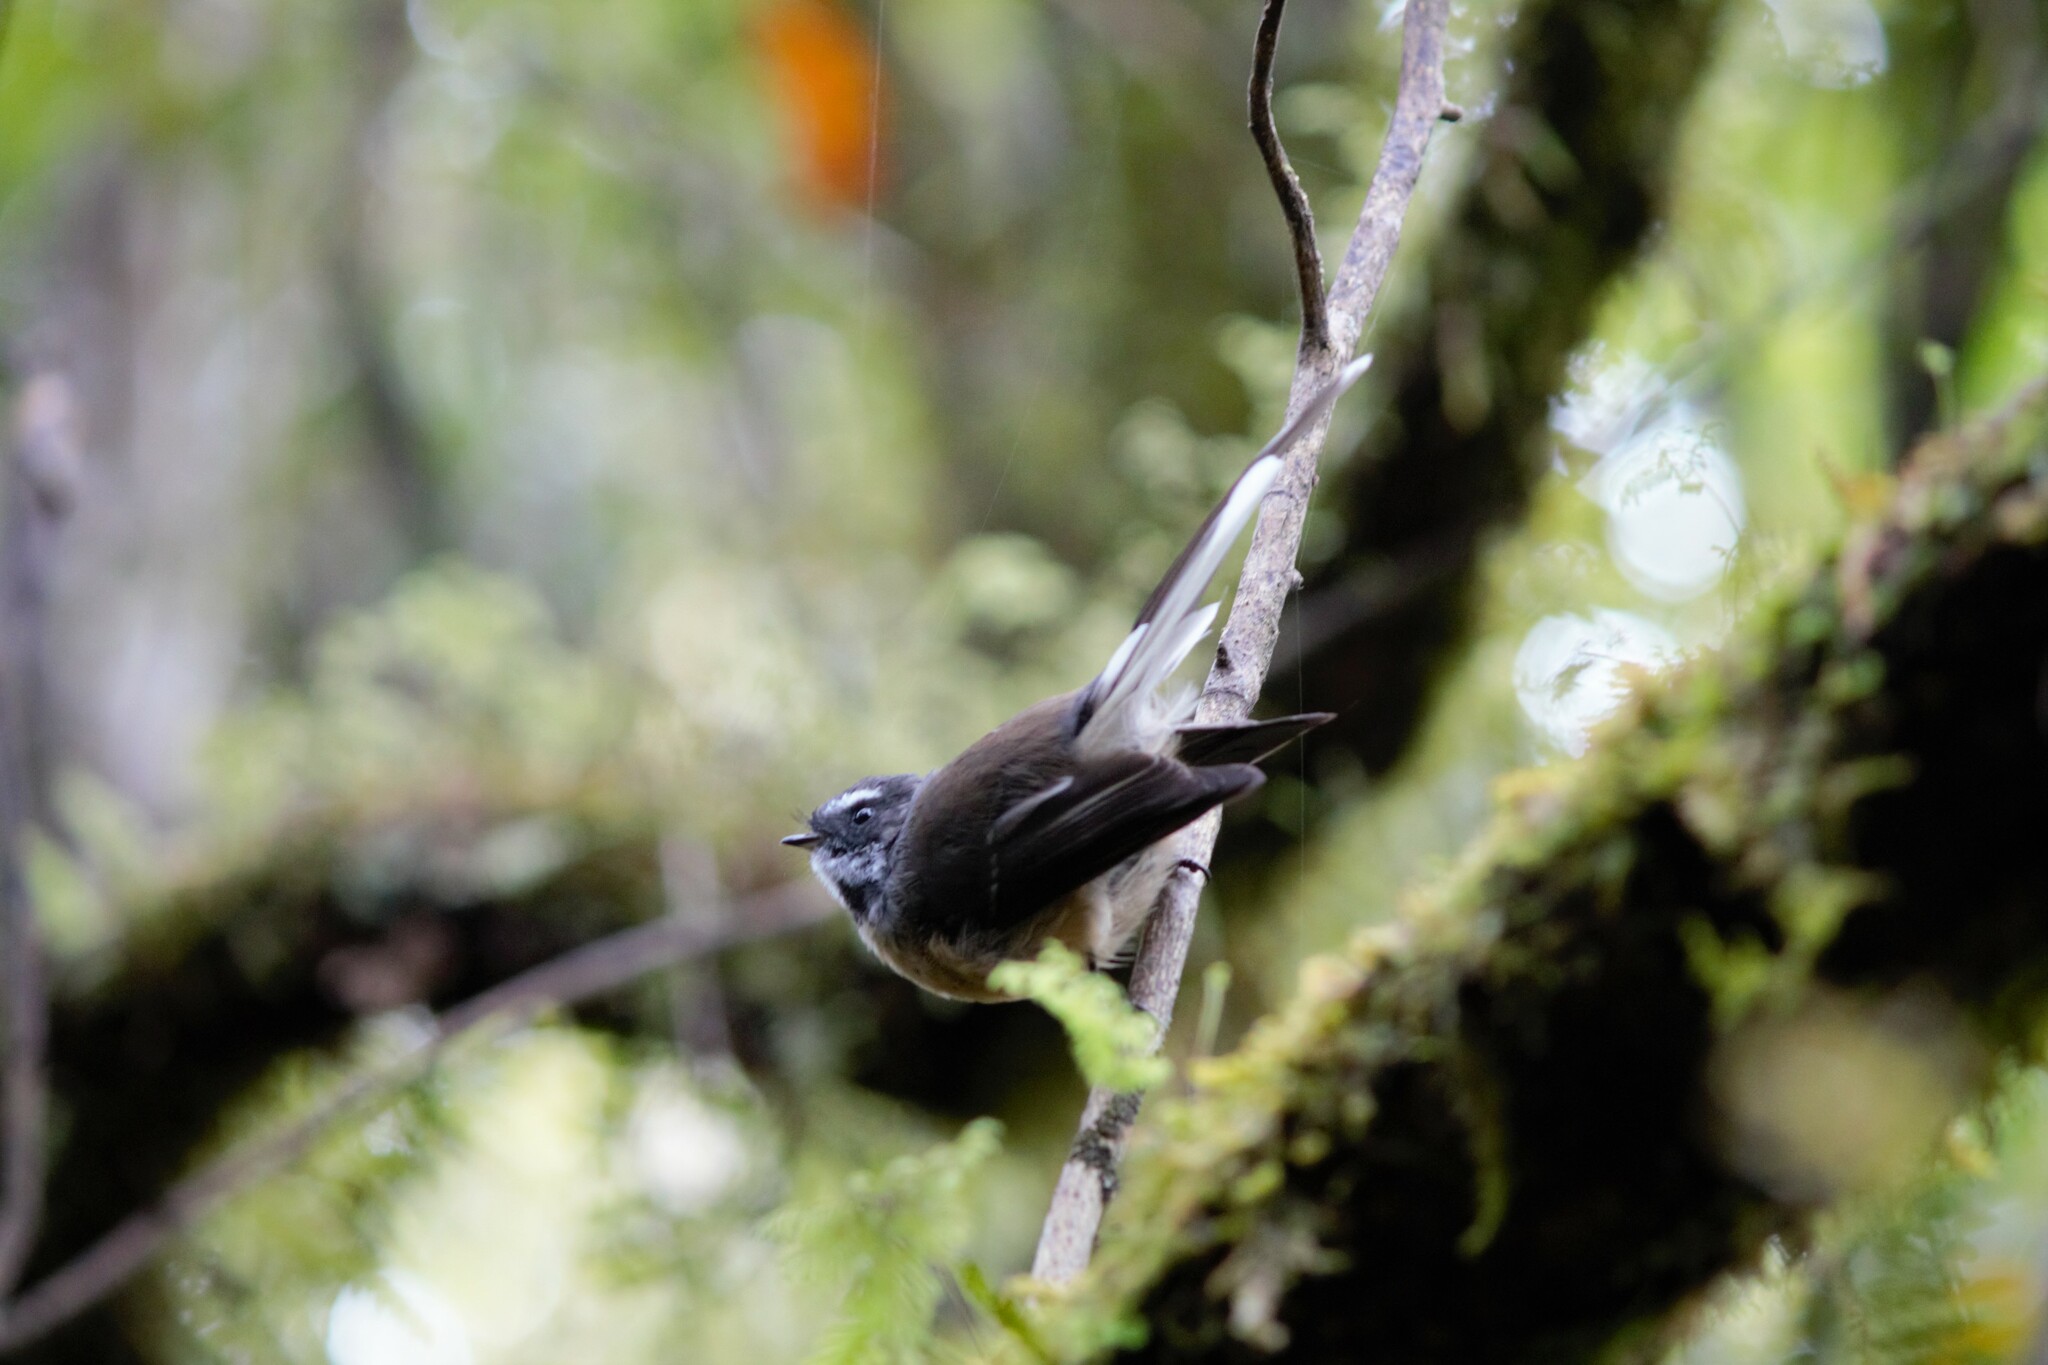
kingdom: Animalia
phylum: Chordata
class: Aves
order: Passeriformes
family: Rhipiduridae
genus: Rhipidura
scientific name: Rhipidura fuliginosa
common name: New zealand fantail
